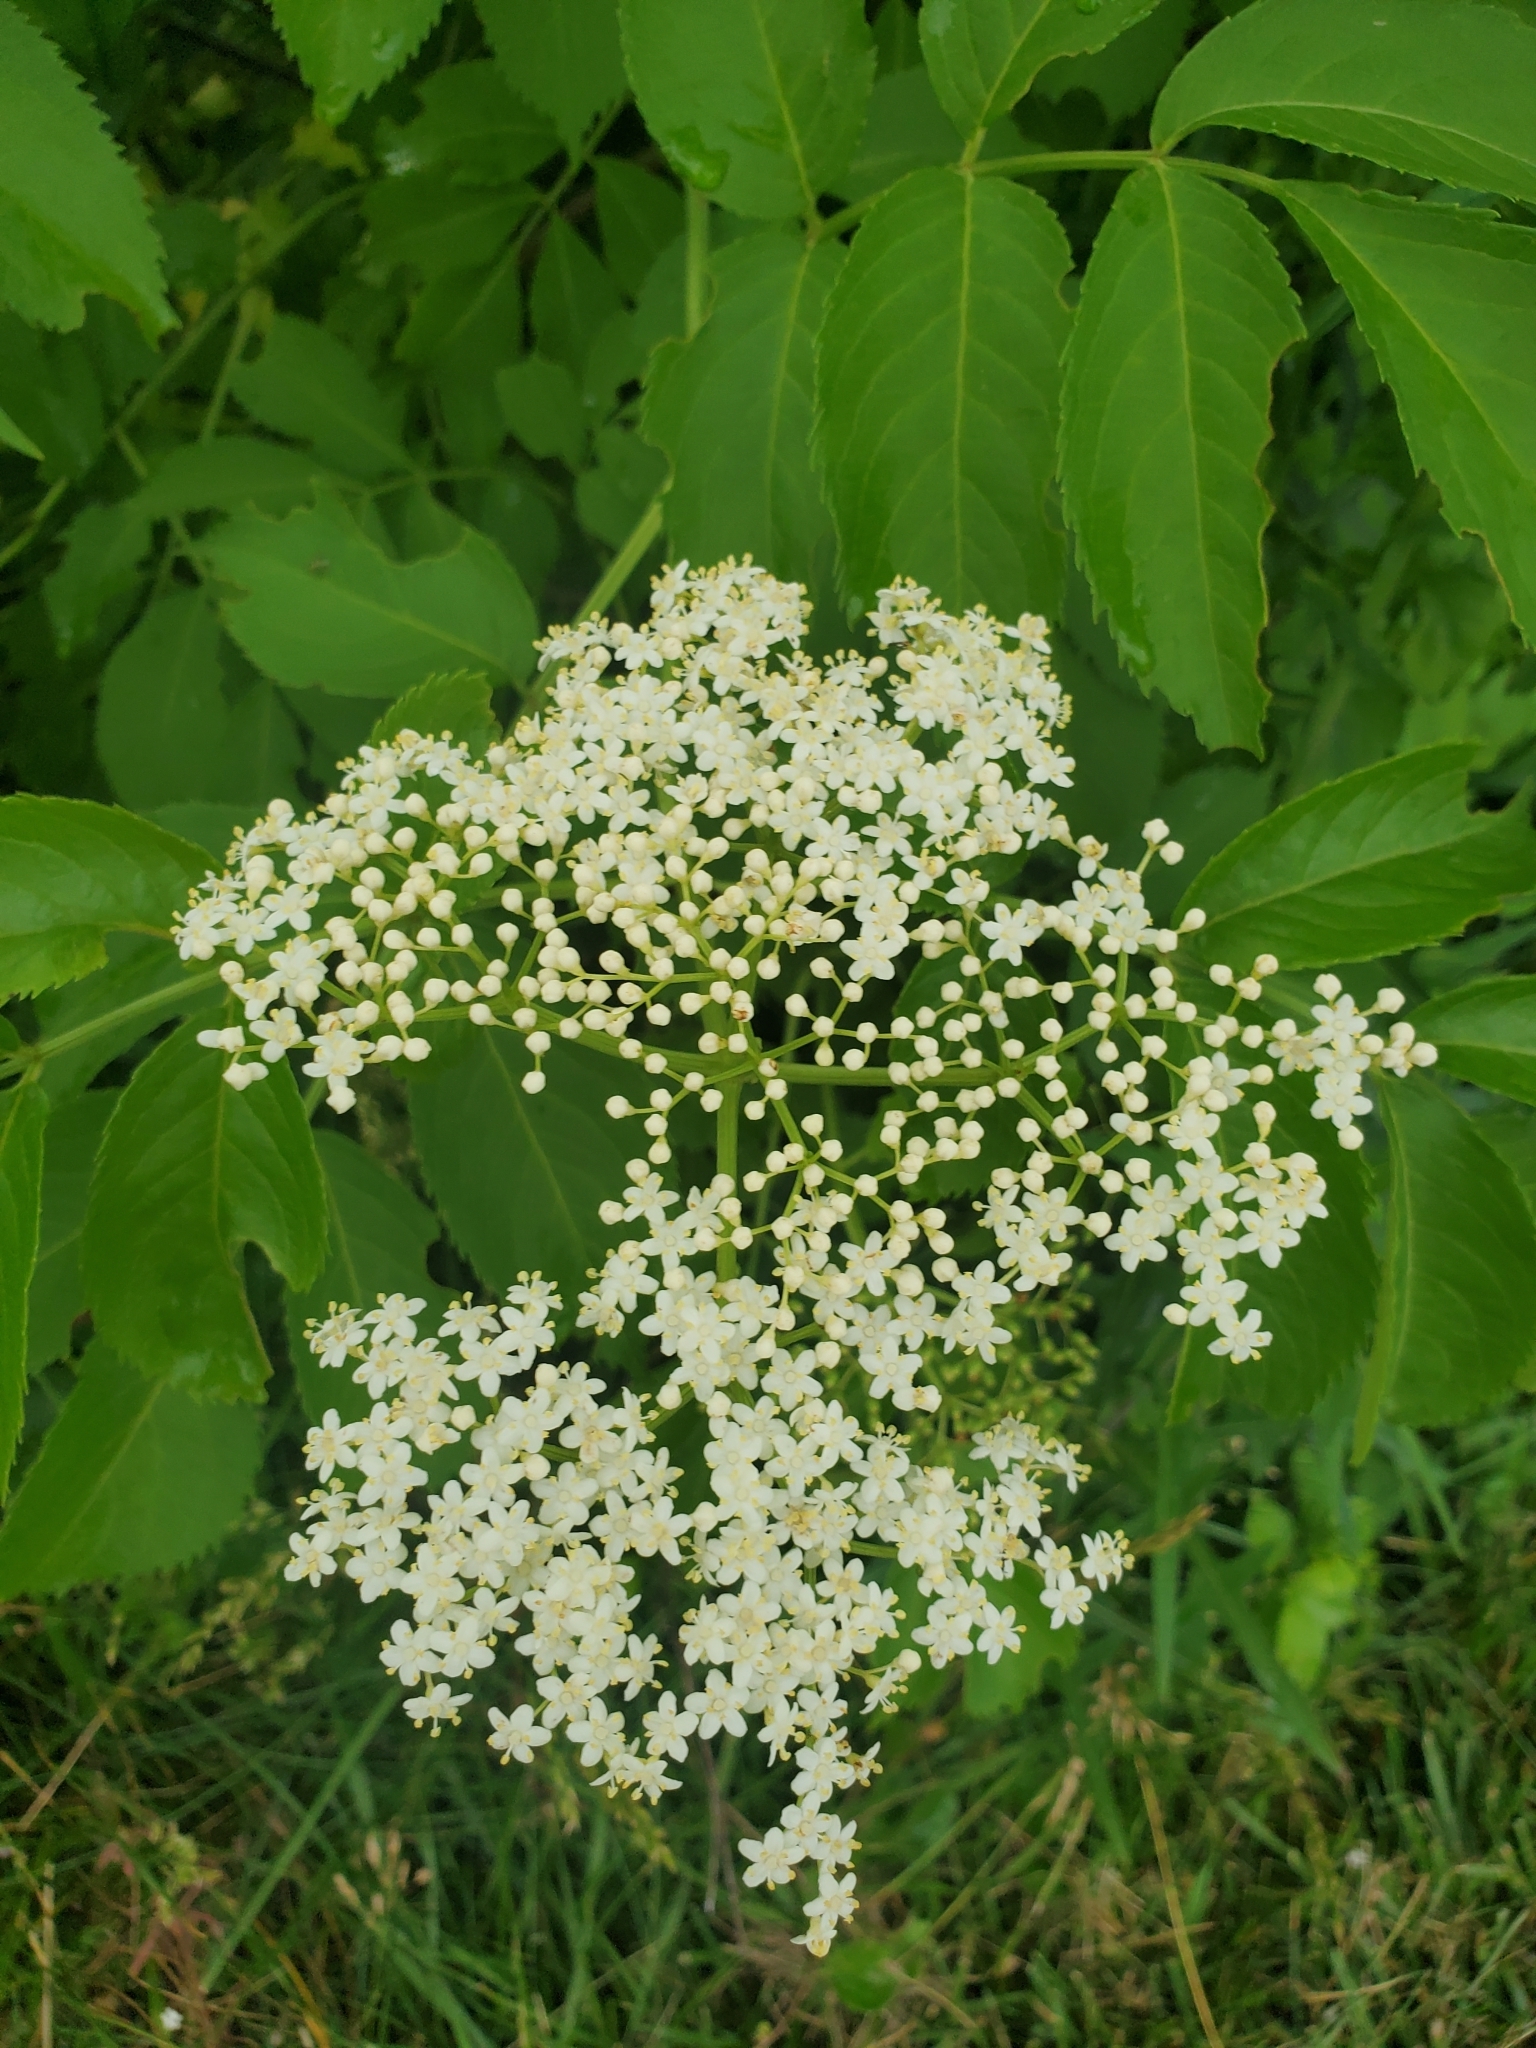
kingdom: Plantae
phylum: Tracheophyta
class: Magnoliopsida
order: Dipsacales
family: Viburnaceae
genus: Sambucus
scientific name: Sambucus canadensis
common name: American elder
